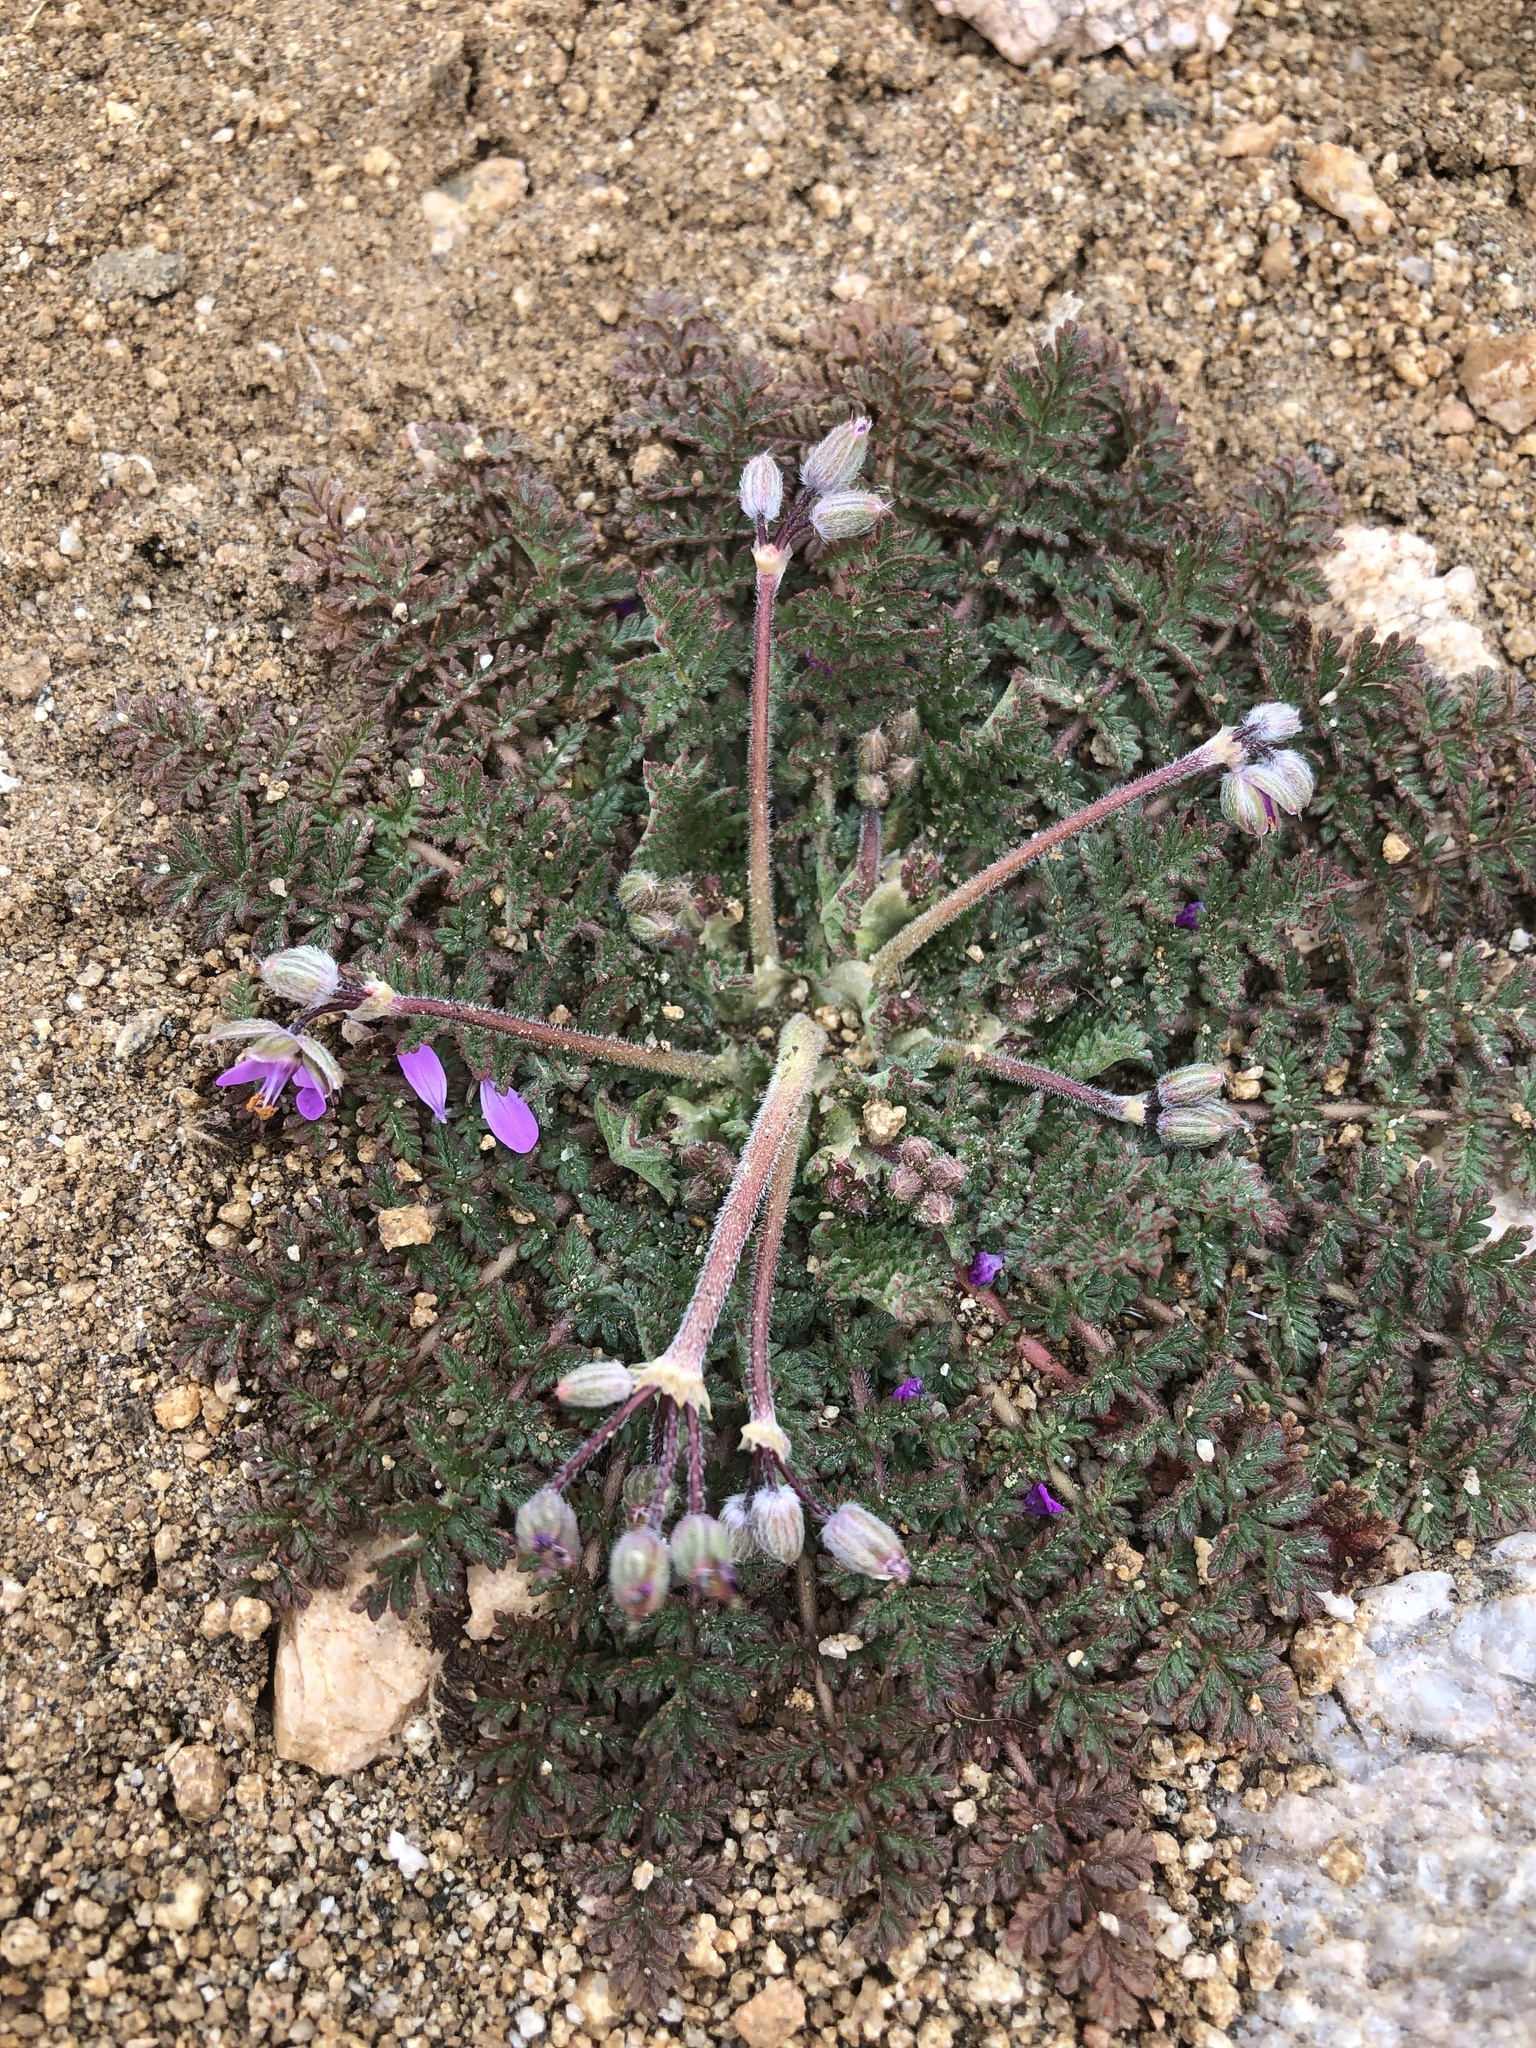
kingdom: Plantae
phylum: Tracheophyta
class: Magnoliopsida
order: Geraniales
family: Geraniaceae
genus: Erodium
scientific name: Erodium cicutarium
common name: Common stork's-bill
